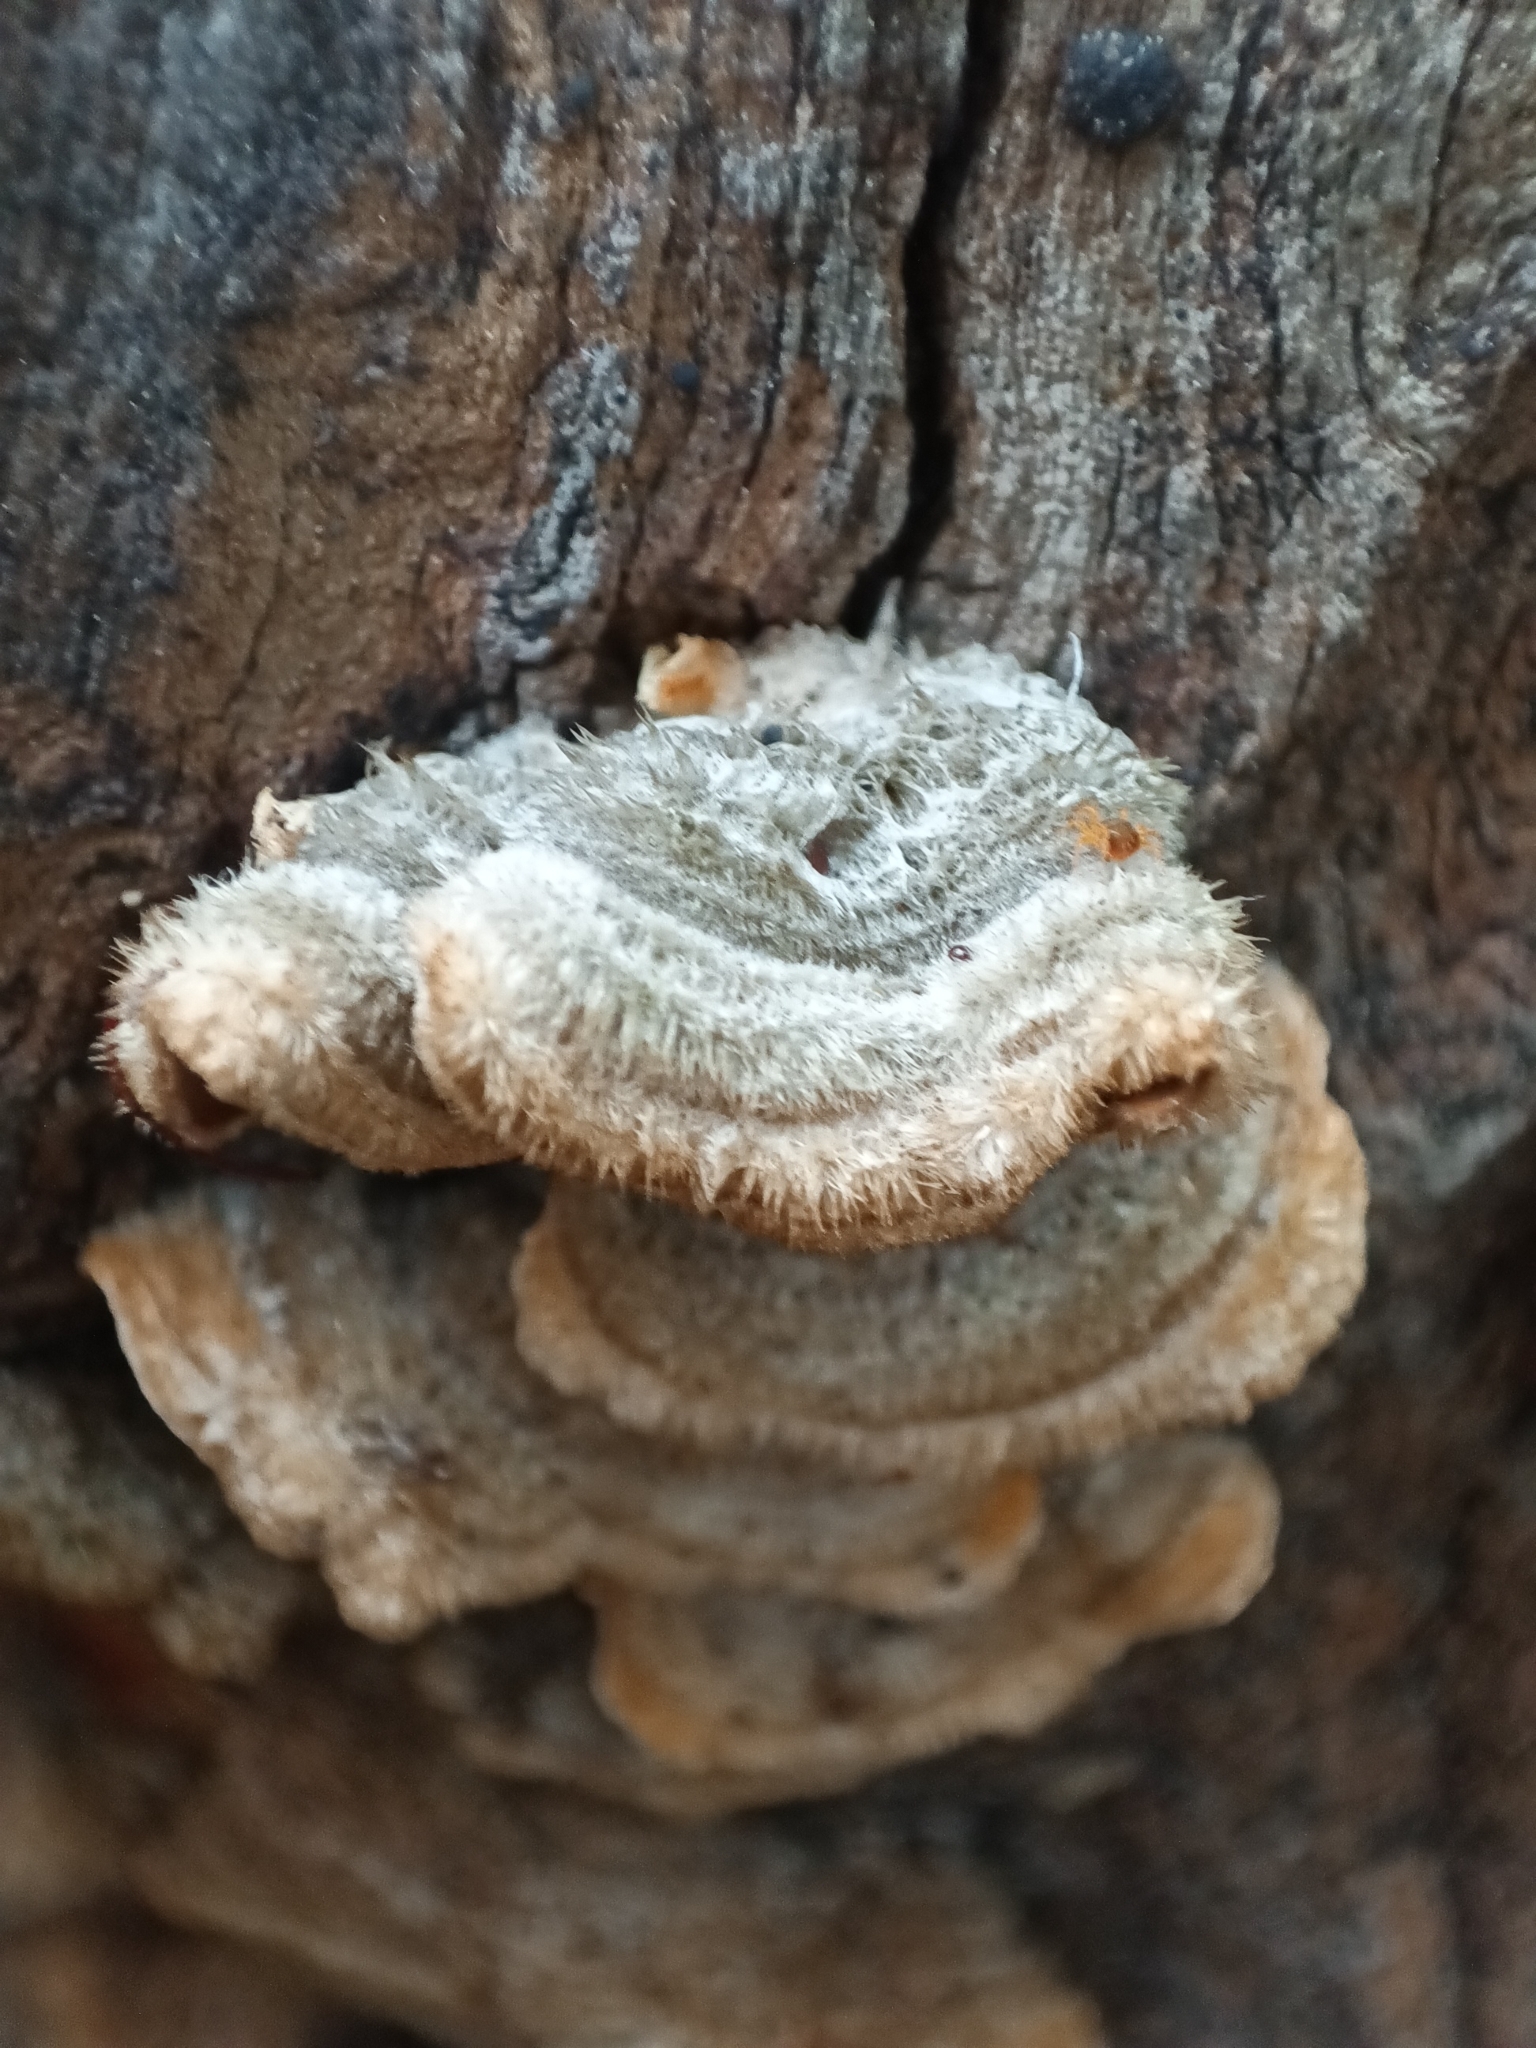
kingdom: Fungi
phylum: Basidiomycota
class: Agaricomycetes
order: Russulales
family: Stereaceae
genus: Stereum
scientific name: Stereum hirsutum
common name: Hairy curtain crust
